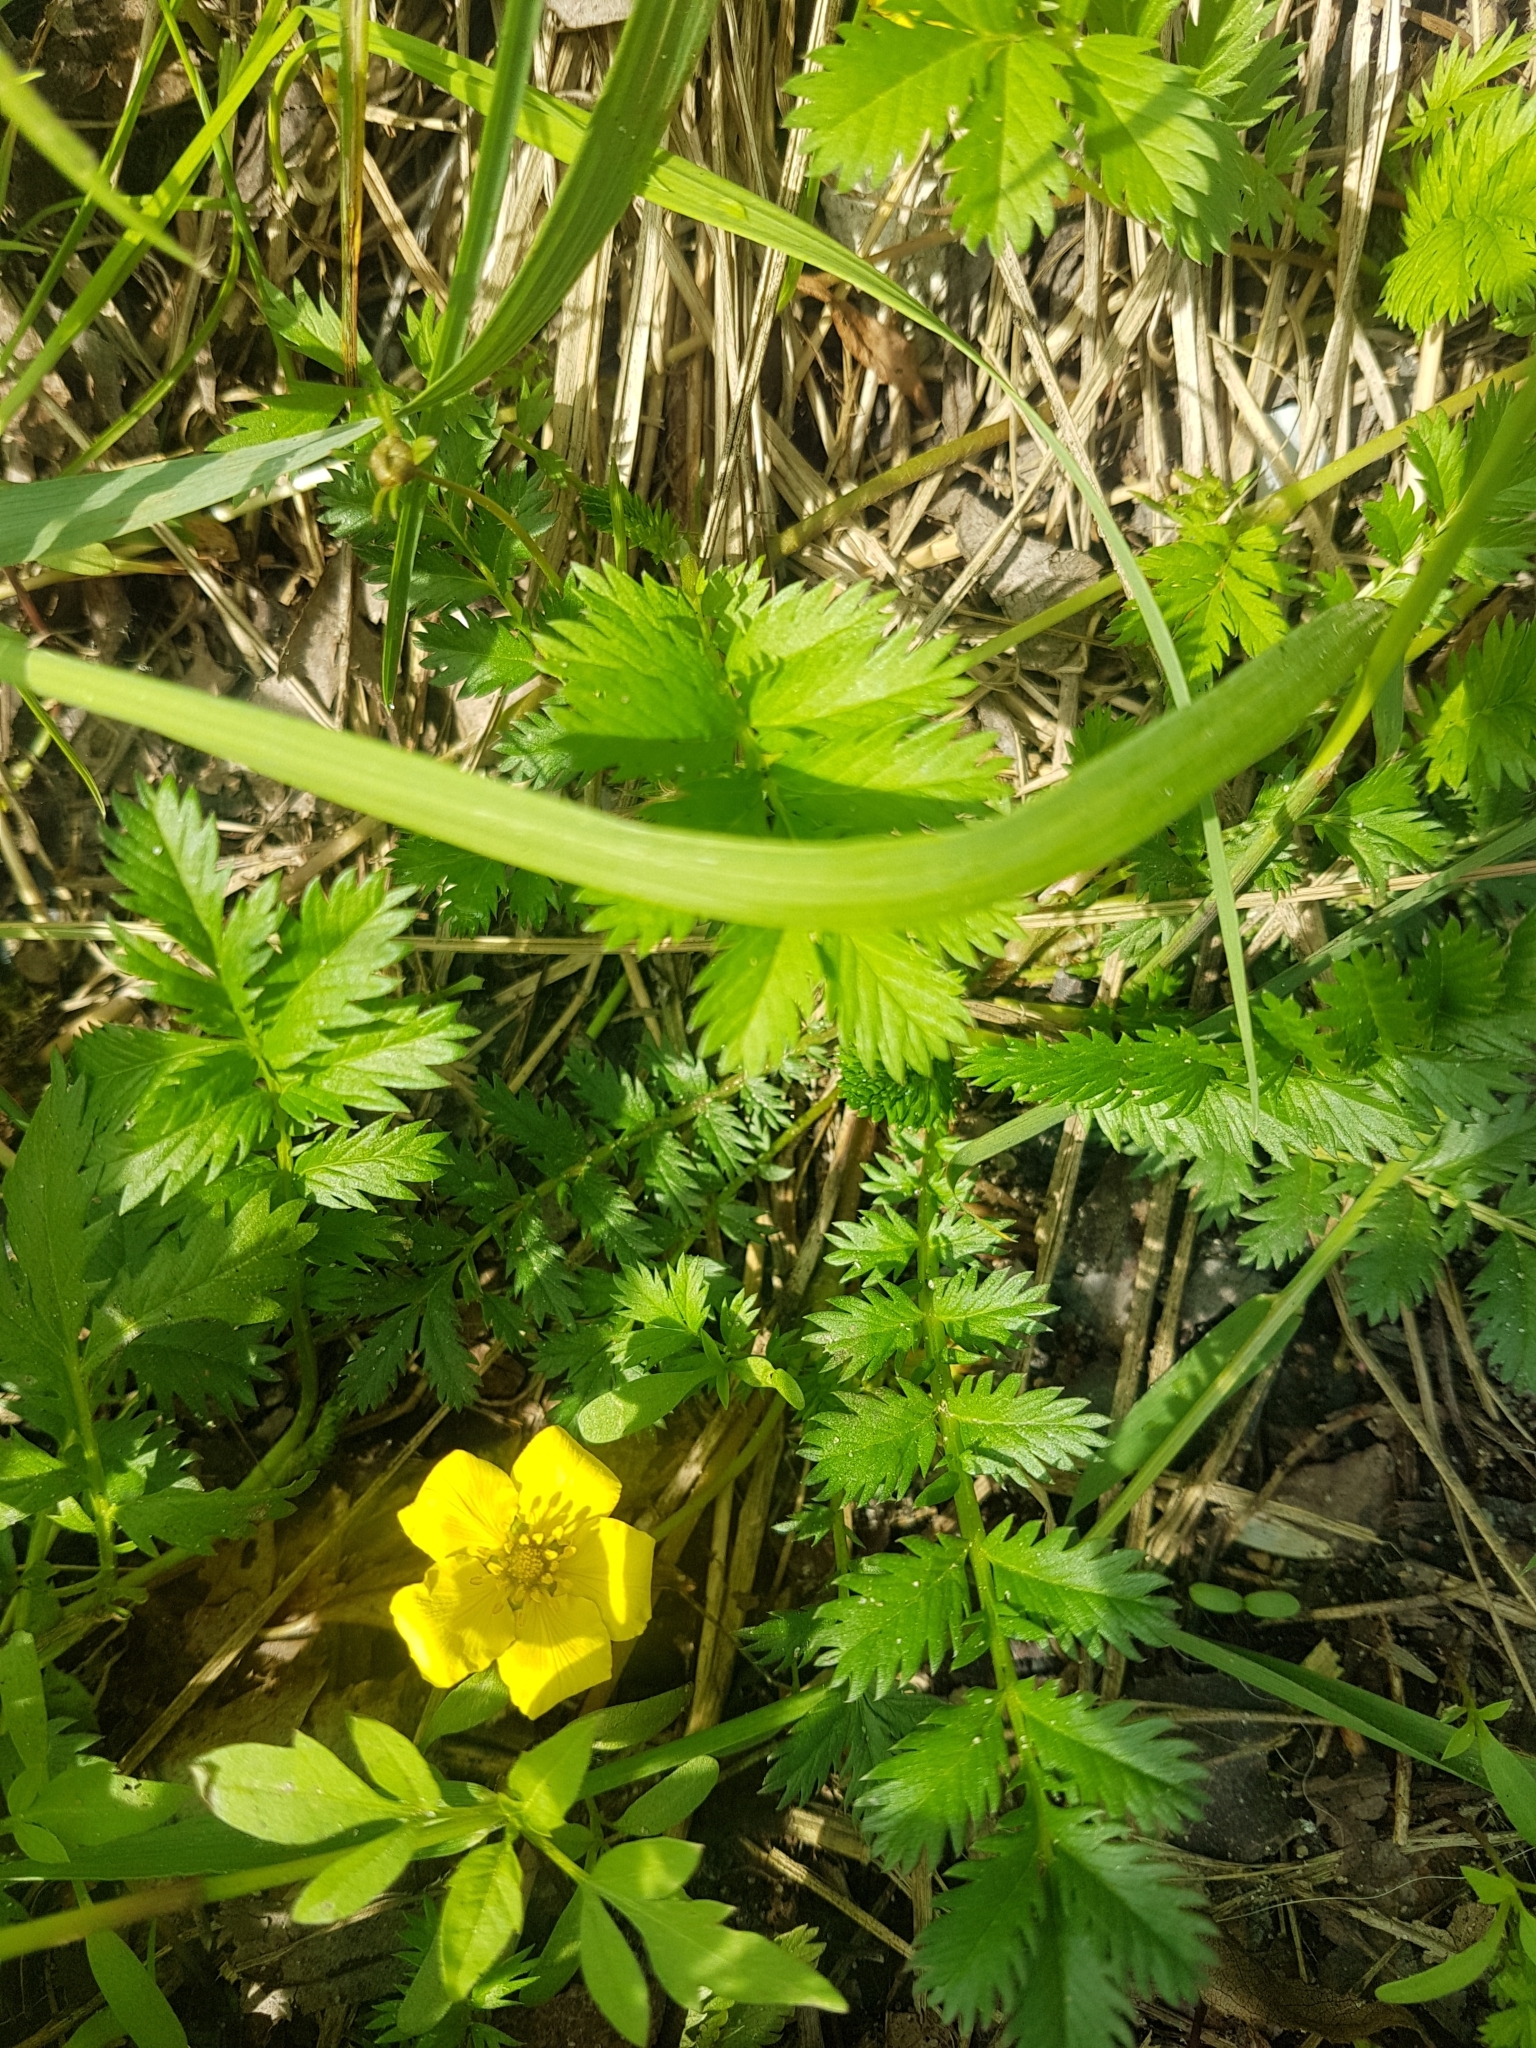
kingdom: Plantae
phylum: Tracheophyta
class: Magnoliopsida
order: Rosales
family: Rosaceae
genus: Argentina
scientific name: Argentina anserina
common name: Common silverweed
